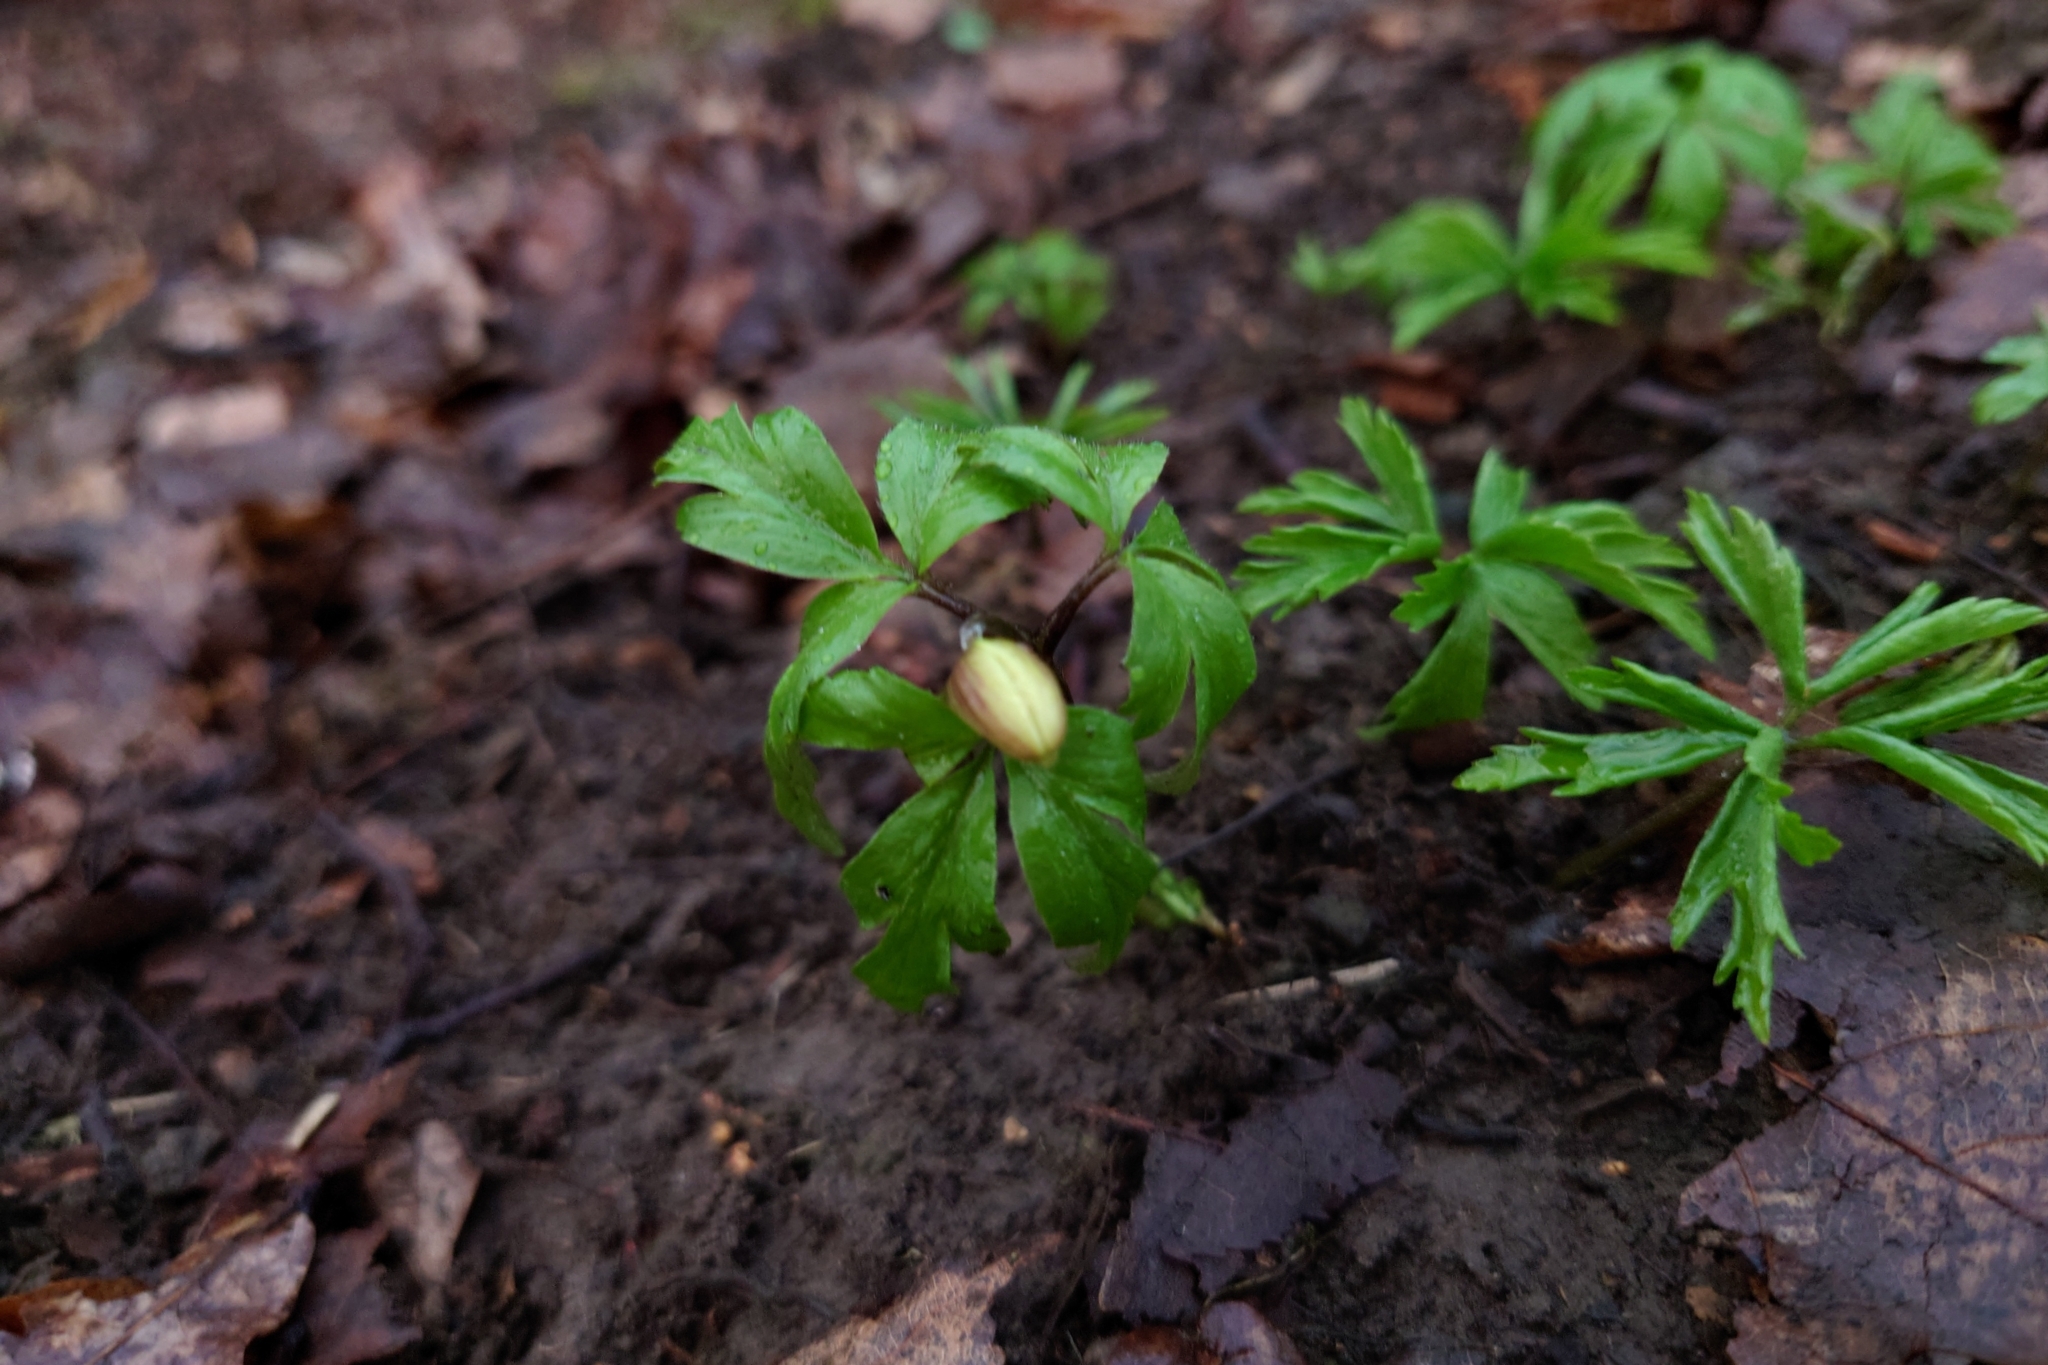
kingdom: Plantae
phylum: Tracheophyta
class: Magnoliopsida
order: Ranunculales
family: Ranunculaceae
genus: Anemone
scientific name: Anemone nemorosa
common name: Wood anemone
